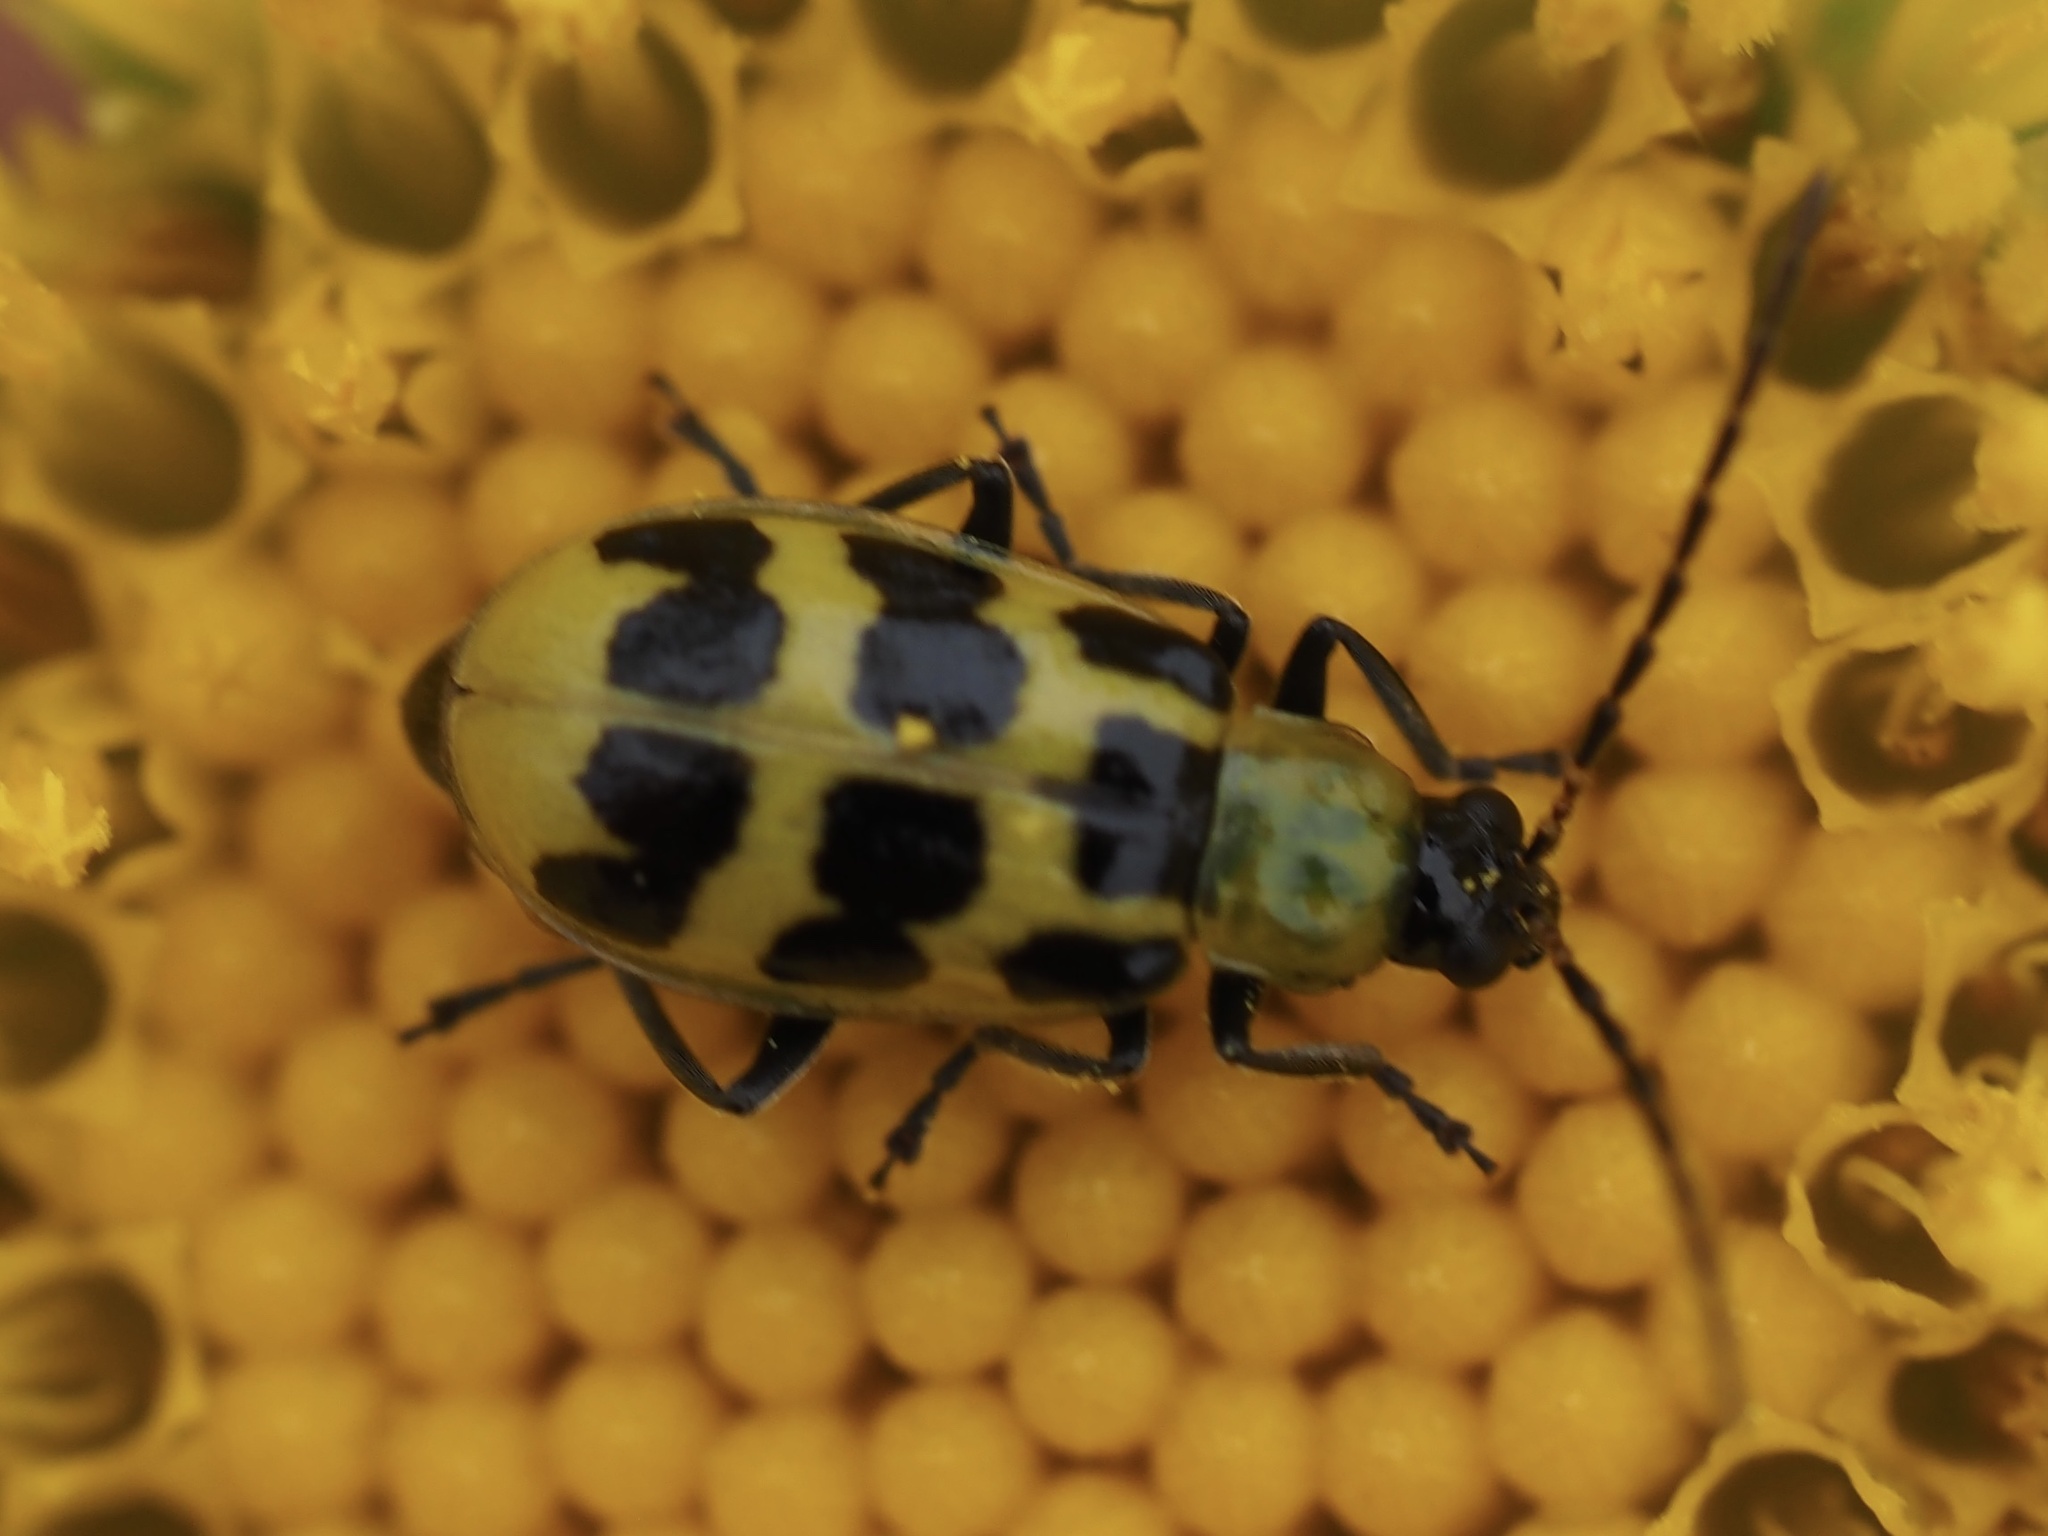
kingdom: Animalia
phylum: Arthropoda
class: Insecta
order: Coleoptera
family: Chrysomelidae
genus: Diabrotica
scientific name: Diabrotica undecimpunctata
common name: Spotted cucumber beetle
